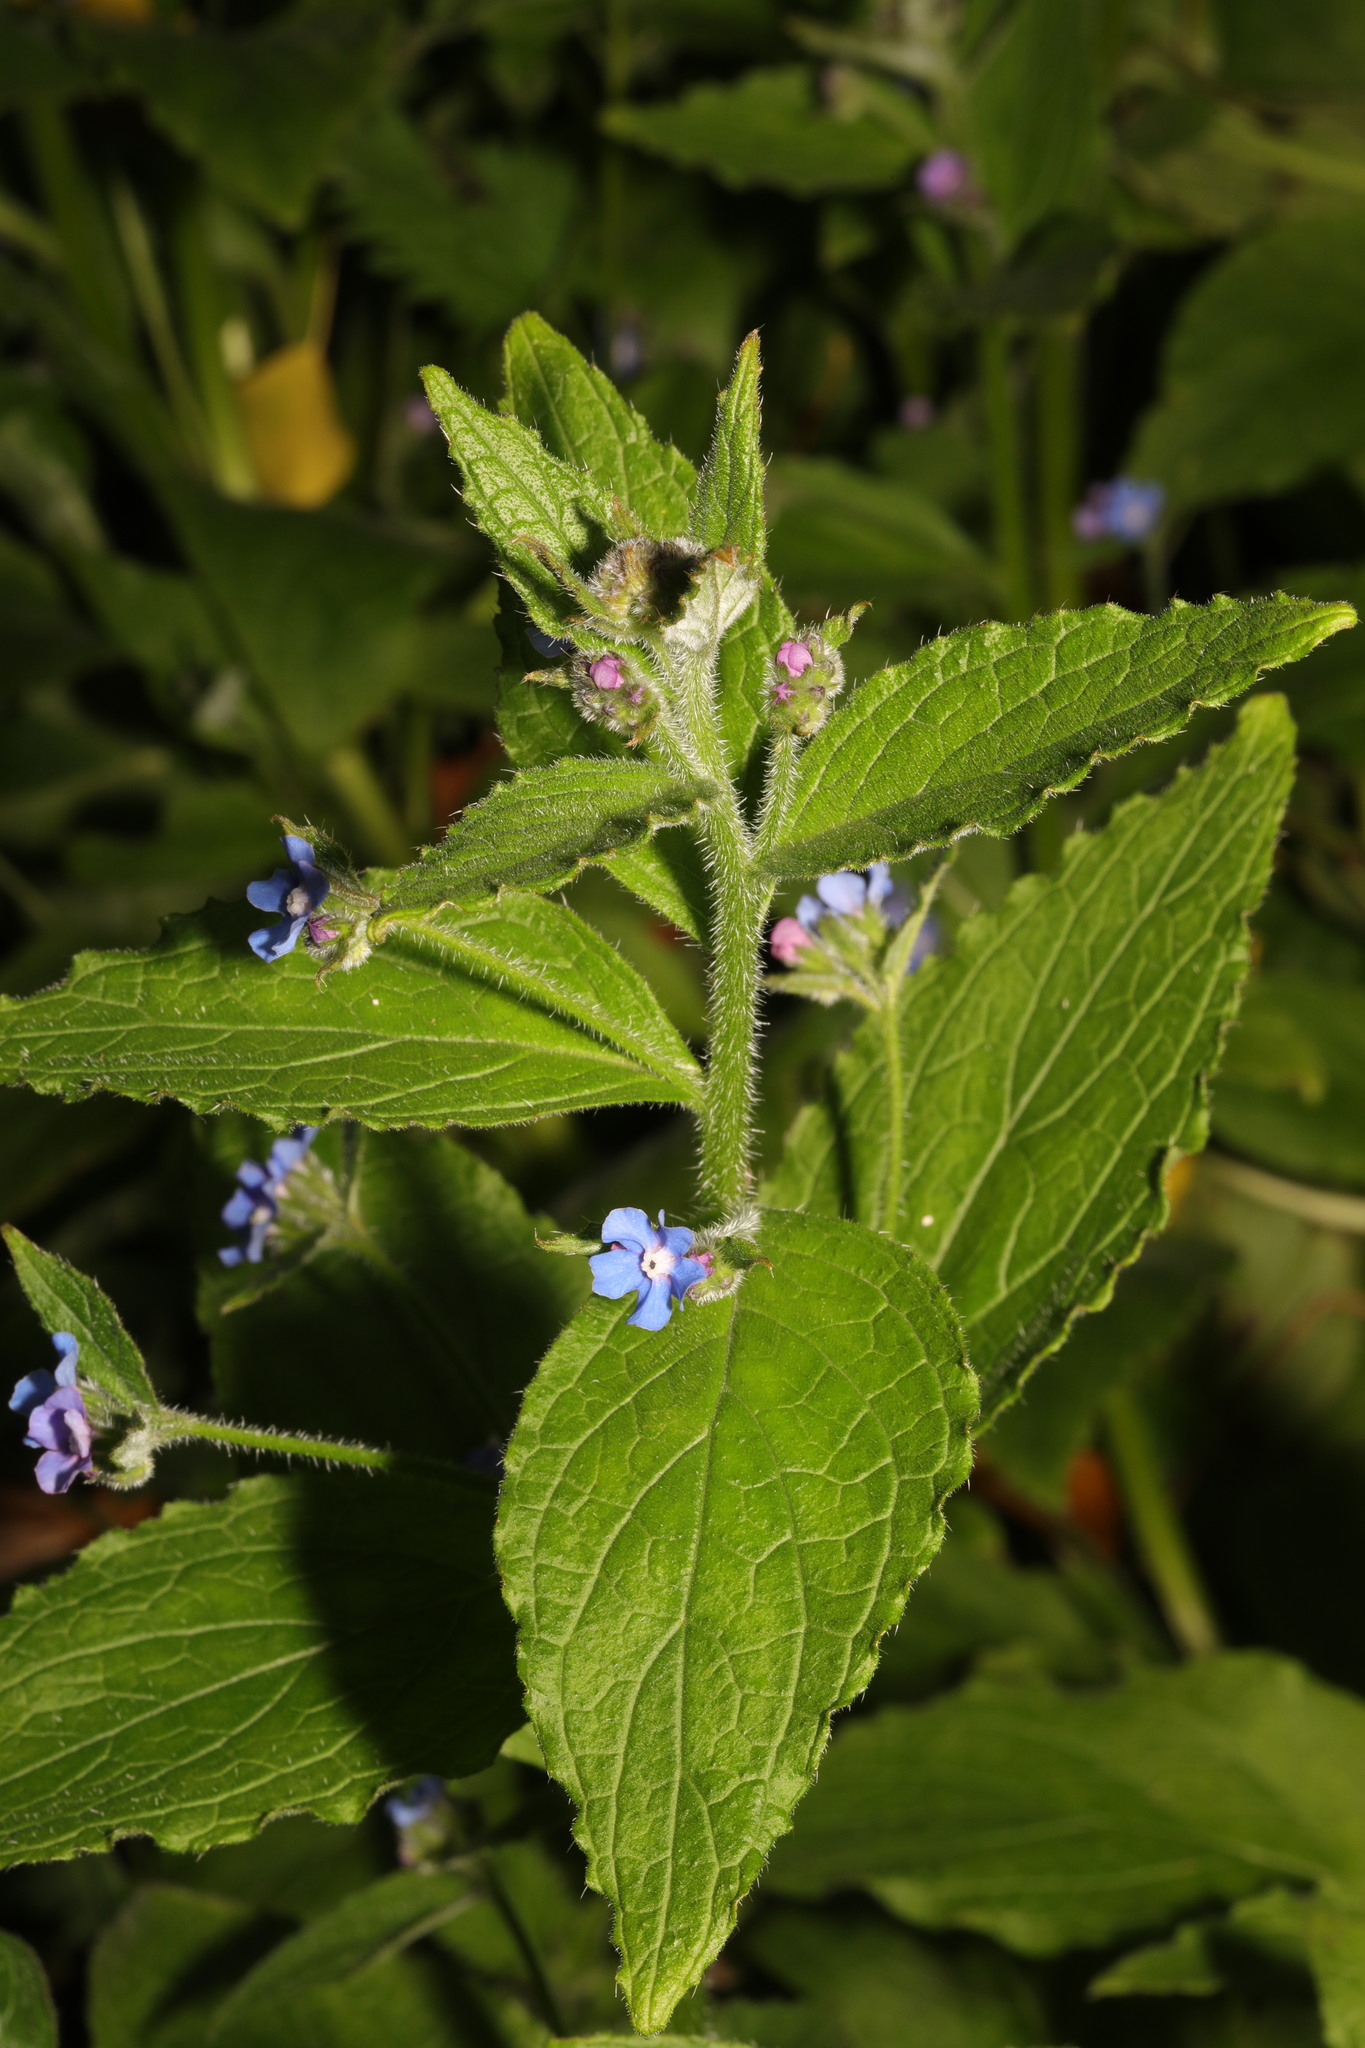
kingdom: Plantae
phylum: Tracheophyta
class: Magnoliopsida
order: Boraginales
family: Boraginaceae
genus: Pentaglottis
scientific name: Pentaglottis sempervirens
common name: Green alkanet
